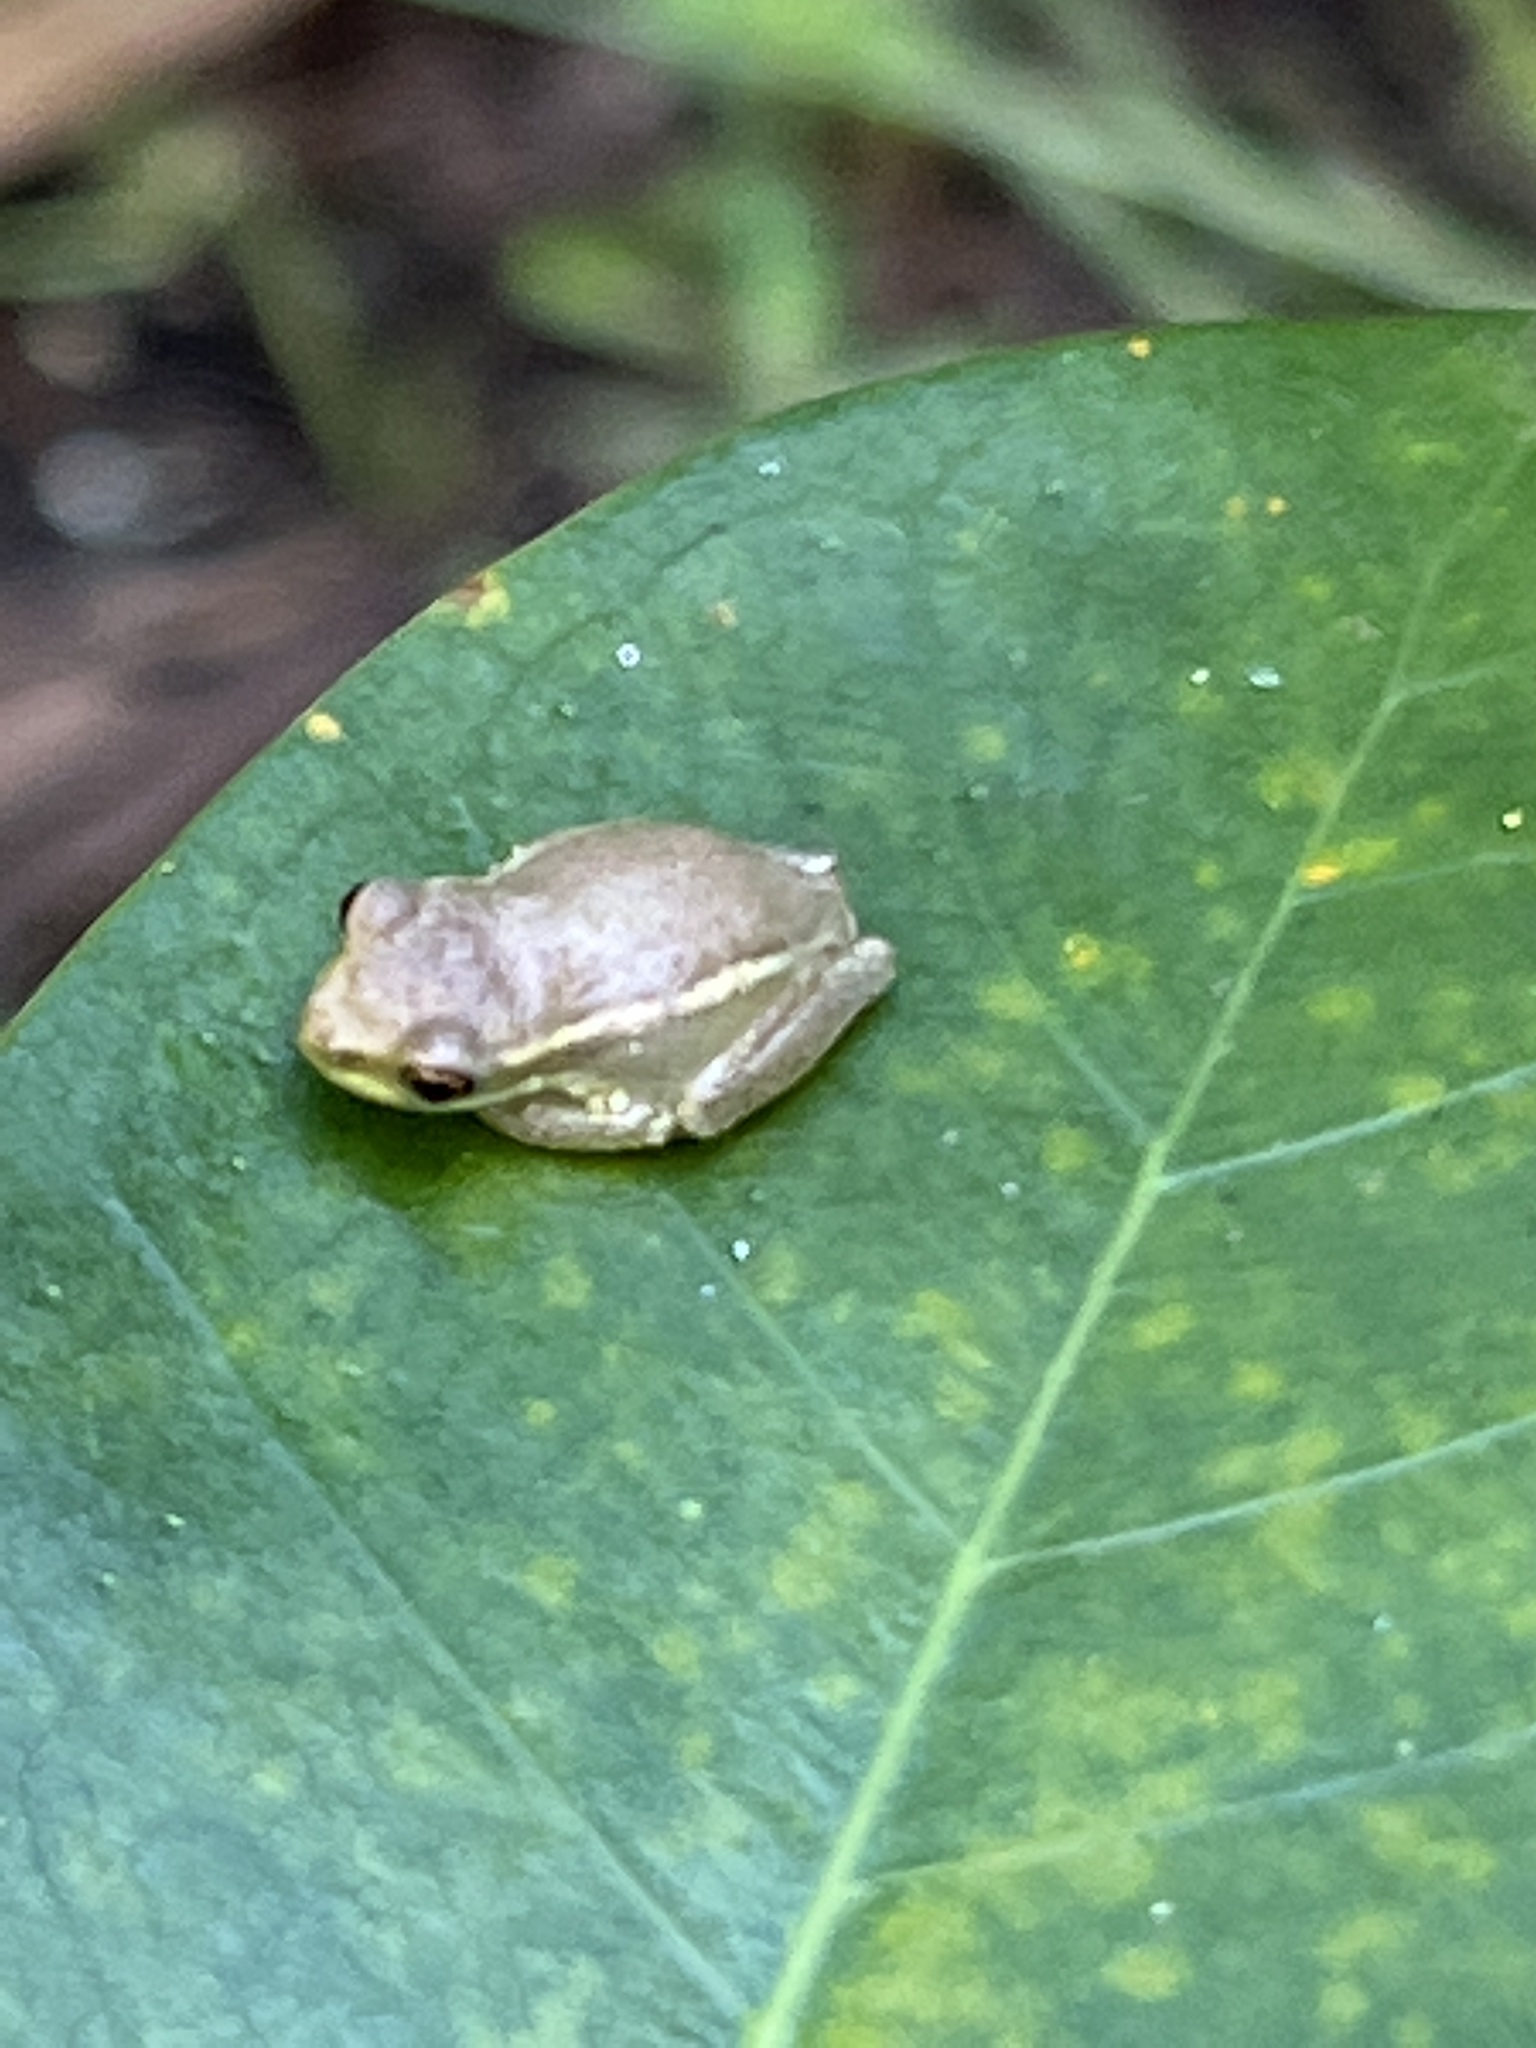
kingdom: Animalia
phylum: Chordata
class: Amphibia
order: Anura
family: Hylidae
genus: Osteopilus
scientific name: Osteopilus septentrionalis
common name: Cuban treefrog
